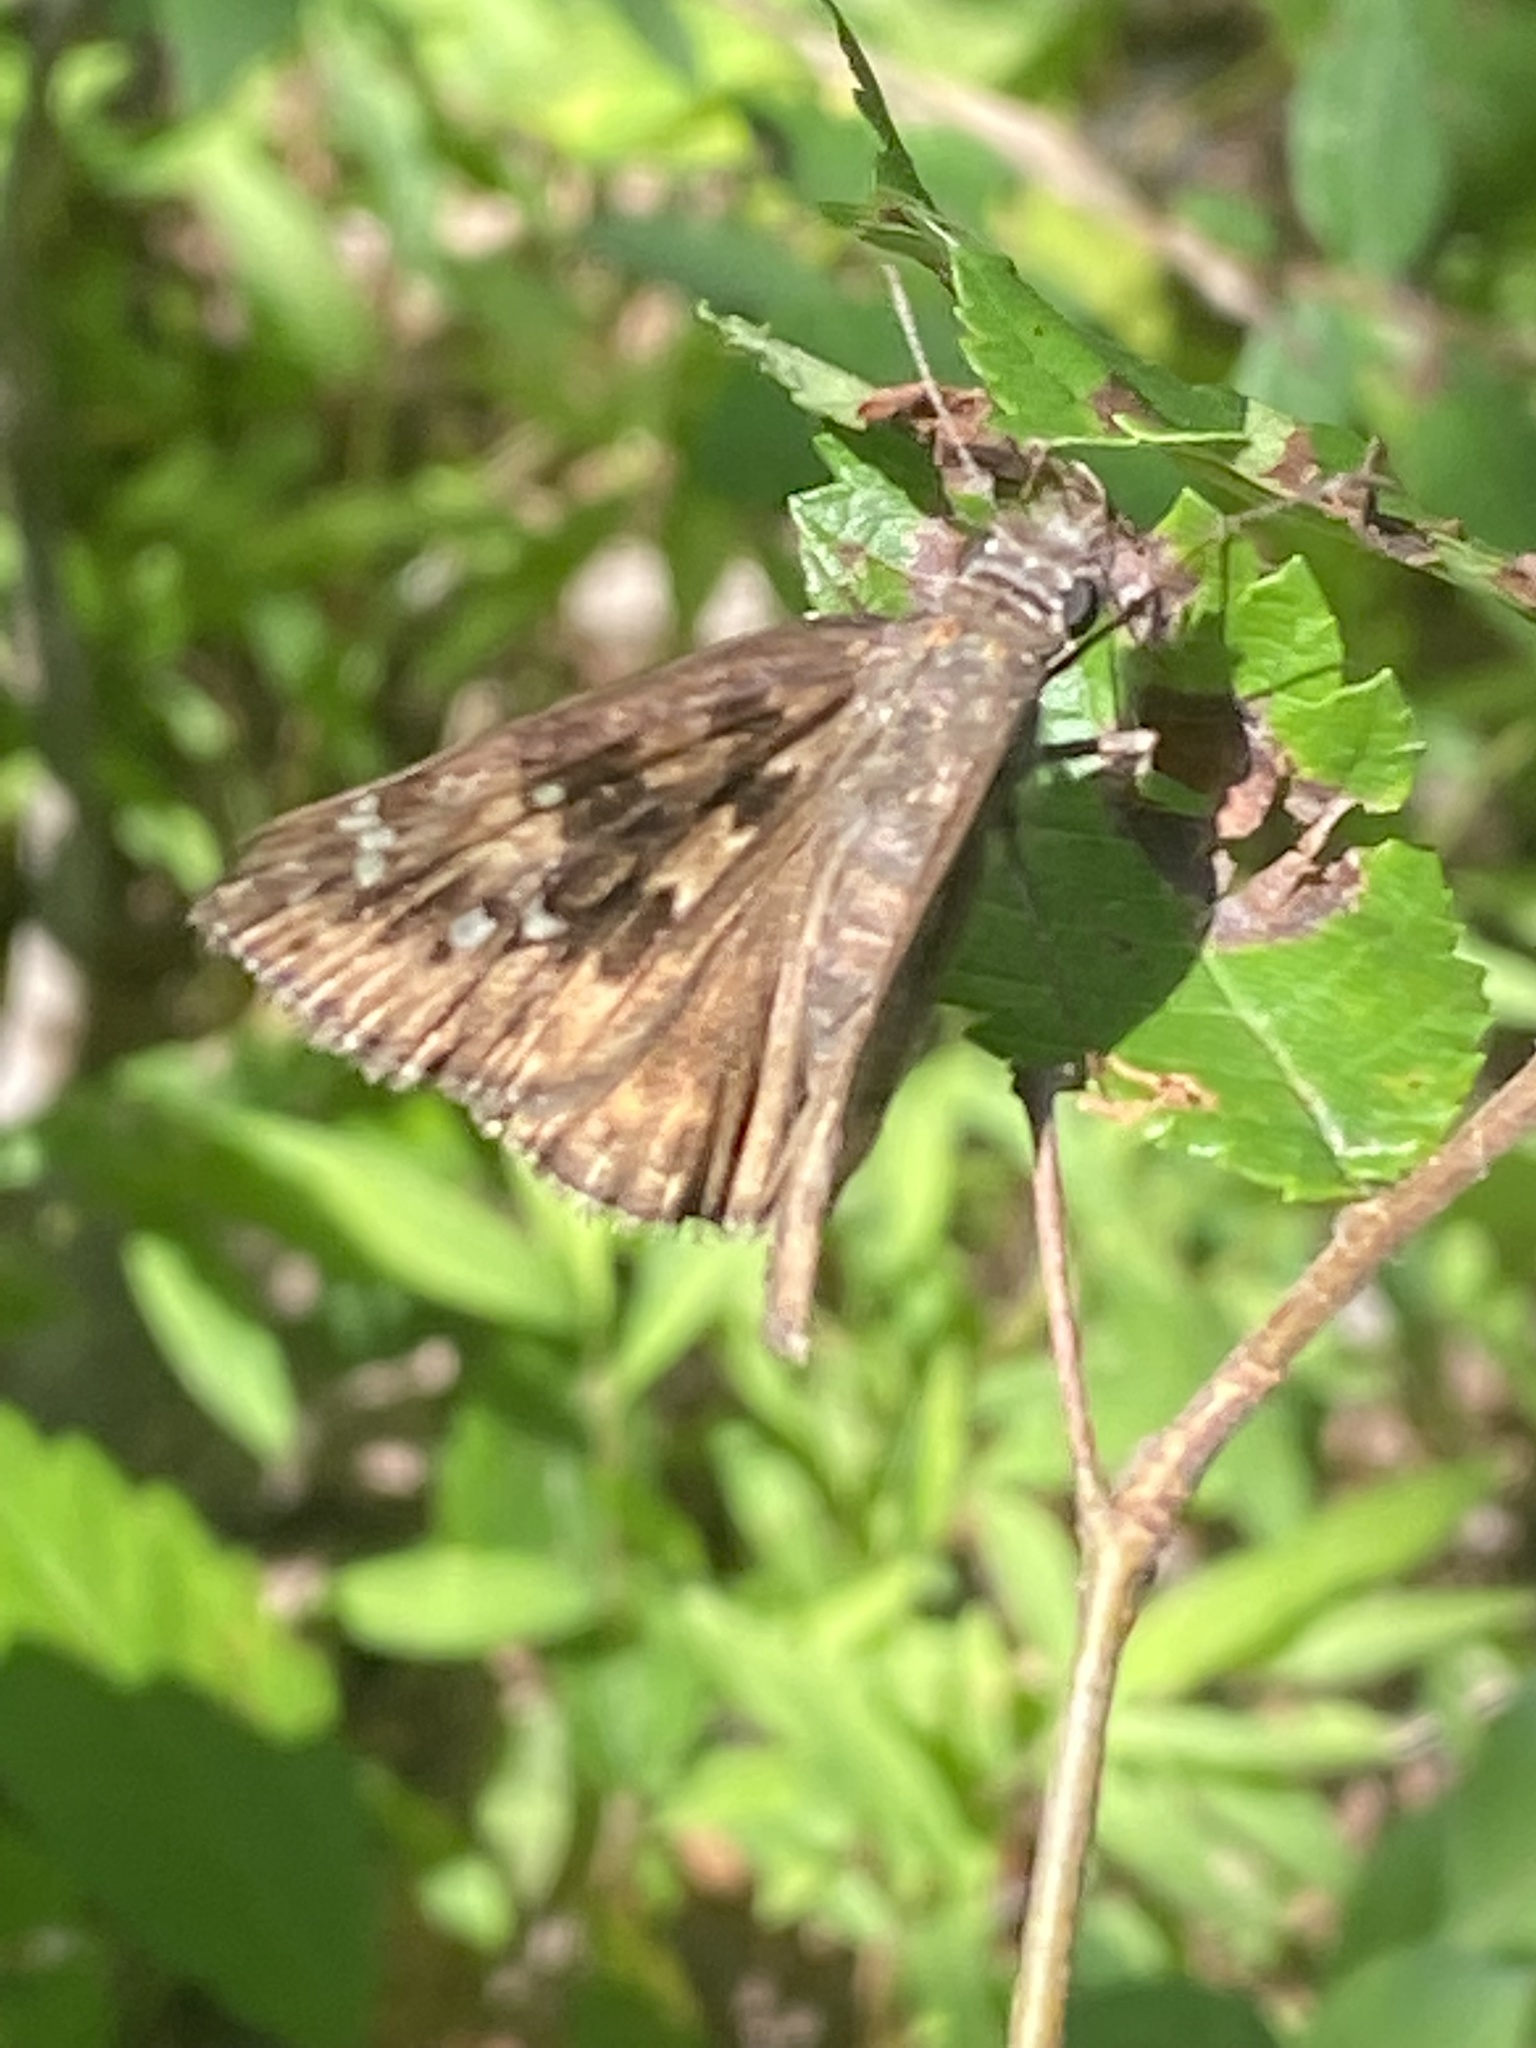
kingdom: Animalia
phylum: Arthropoda
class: Insecta
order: Lepidoptera
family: Hesperiidae
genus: Erynnis
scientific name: Erynnis horatius
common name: Horace's duskywing
